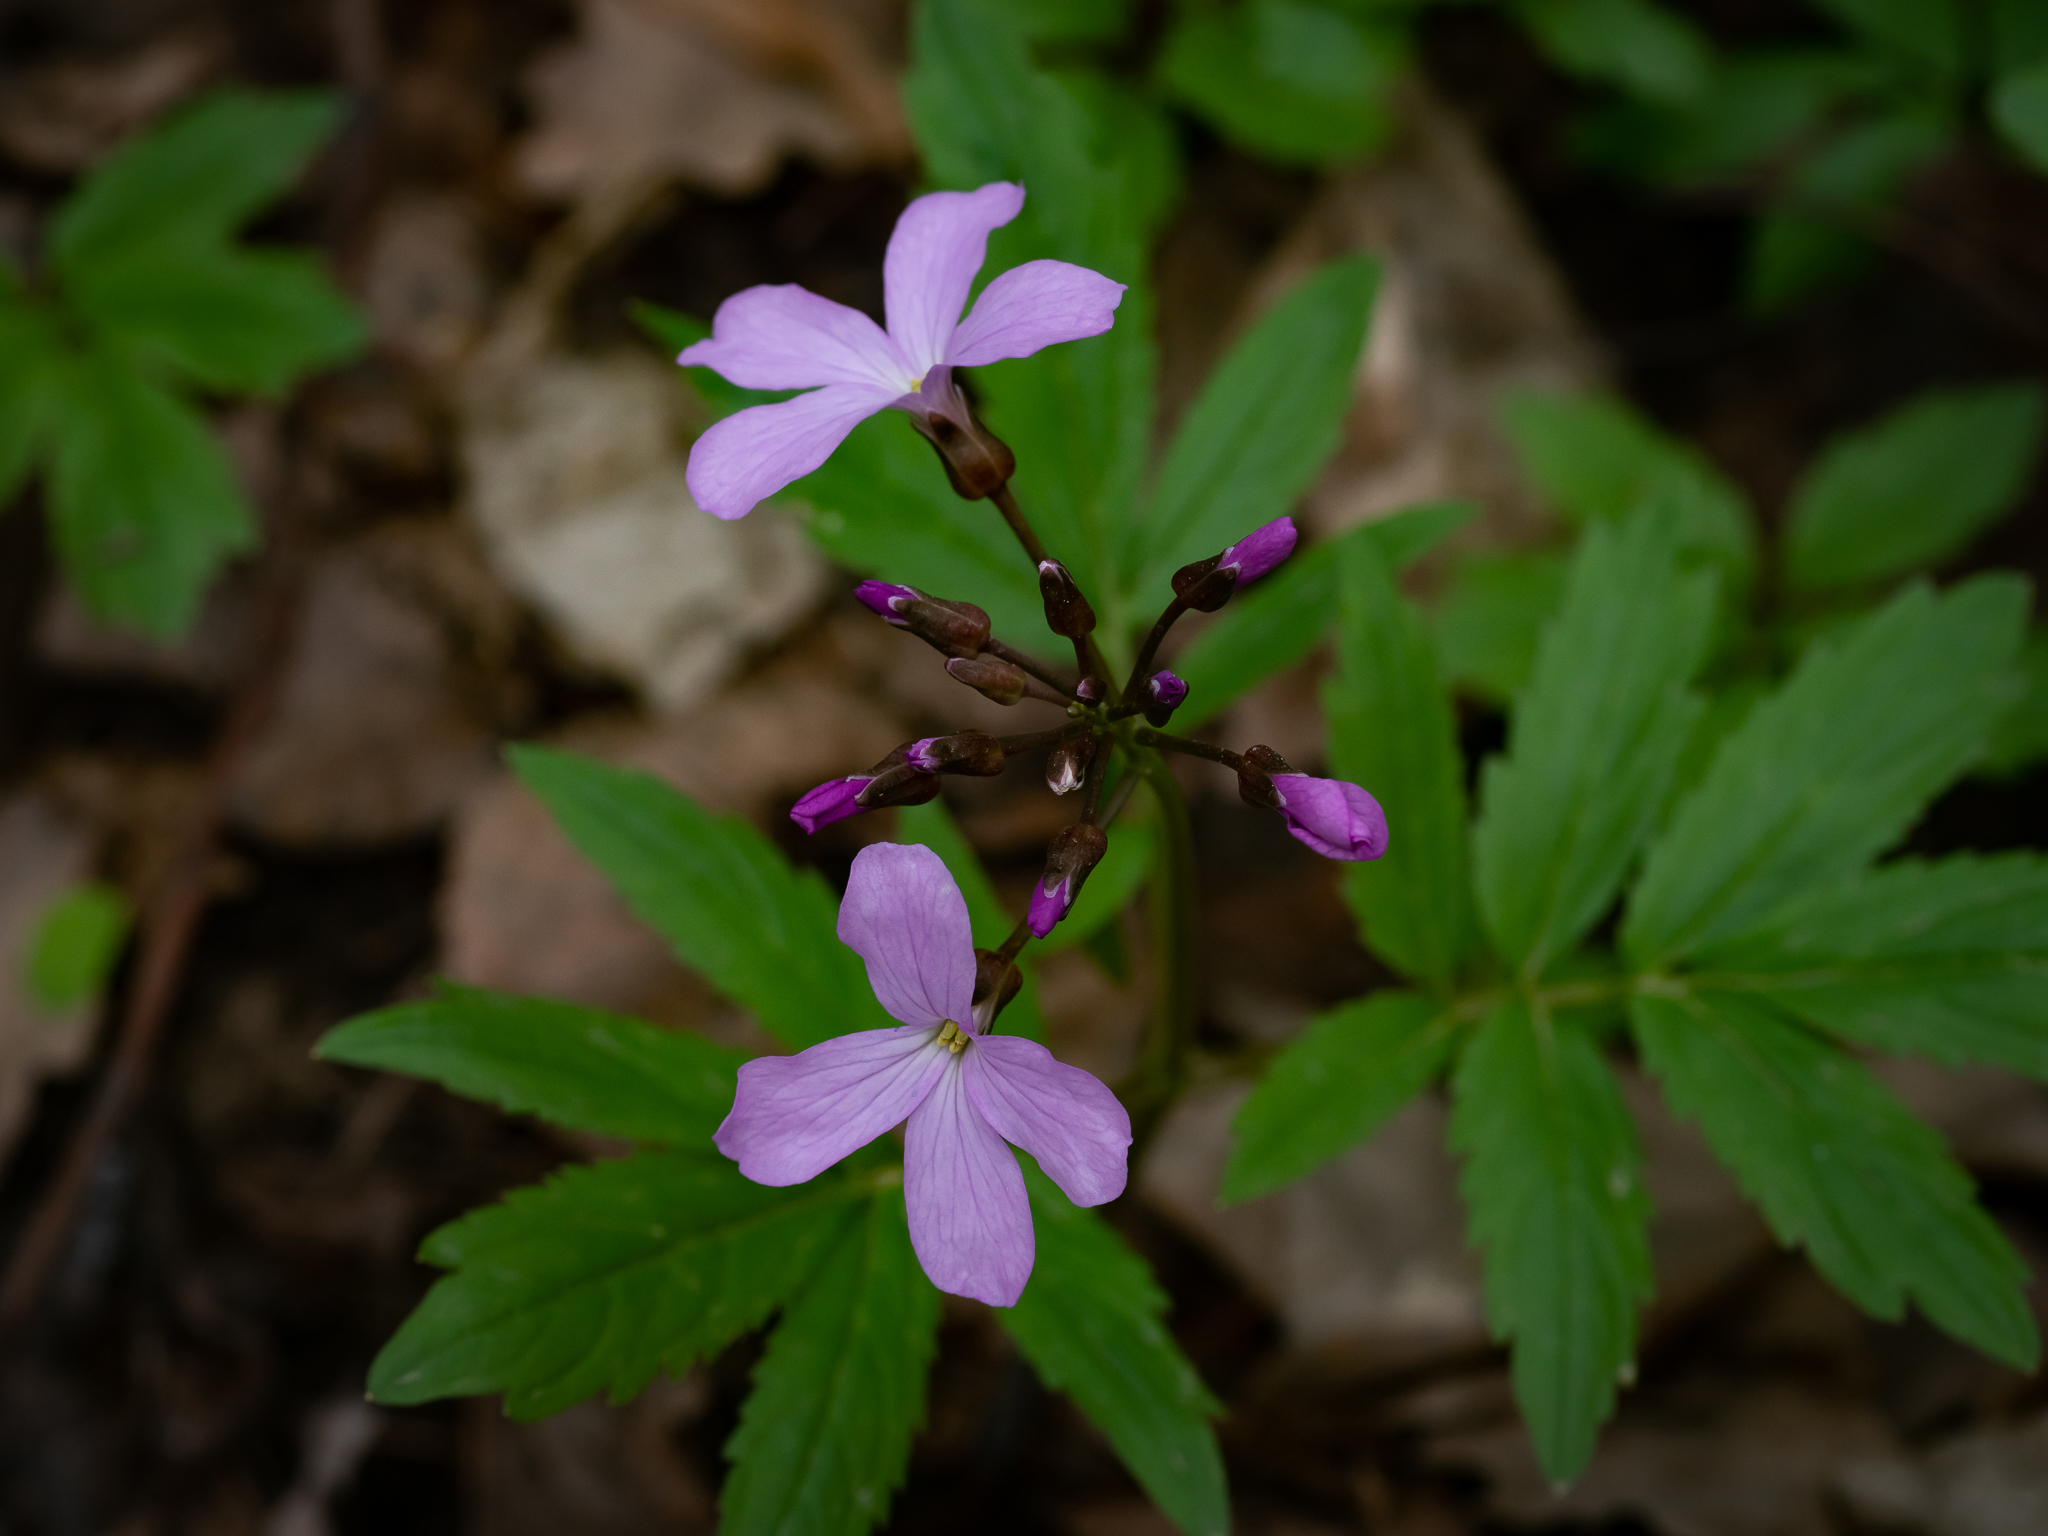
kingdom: Plantae
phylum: Tracheophyta
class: Magnoliopsida
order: Brassicales
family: Brassicaceae
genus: Cardamine
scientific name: Cardamine quinquefolia
